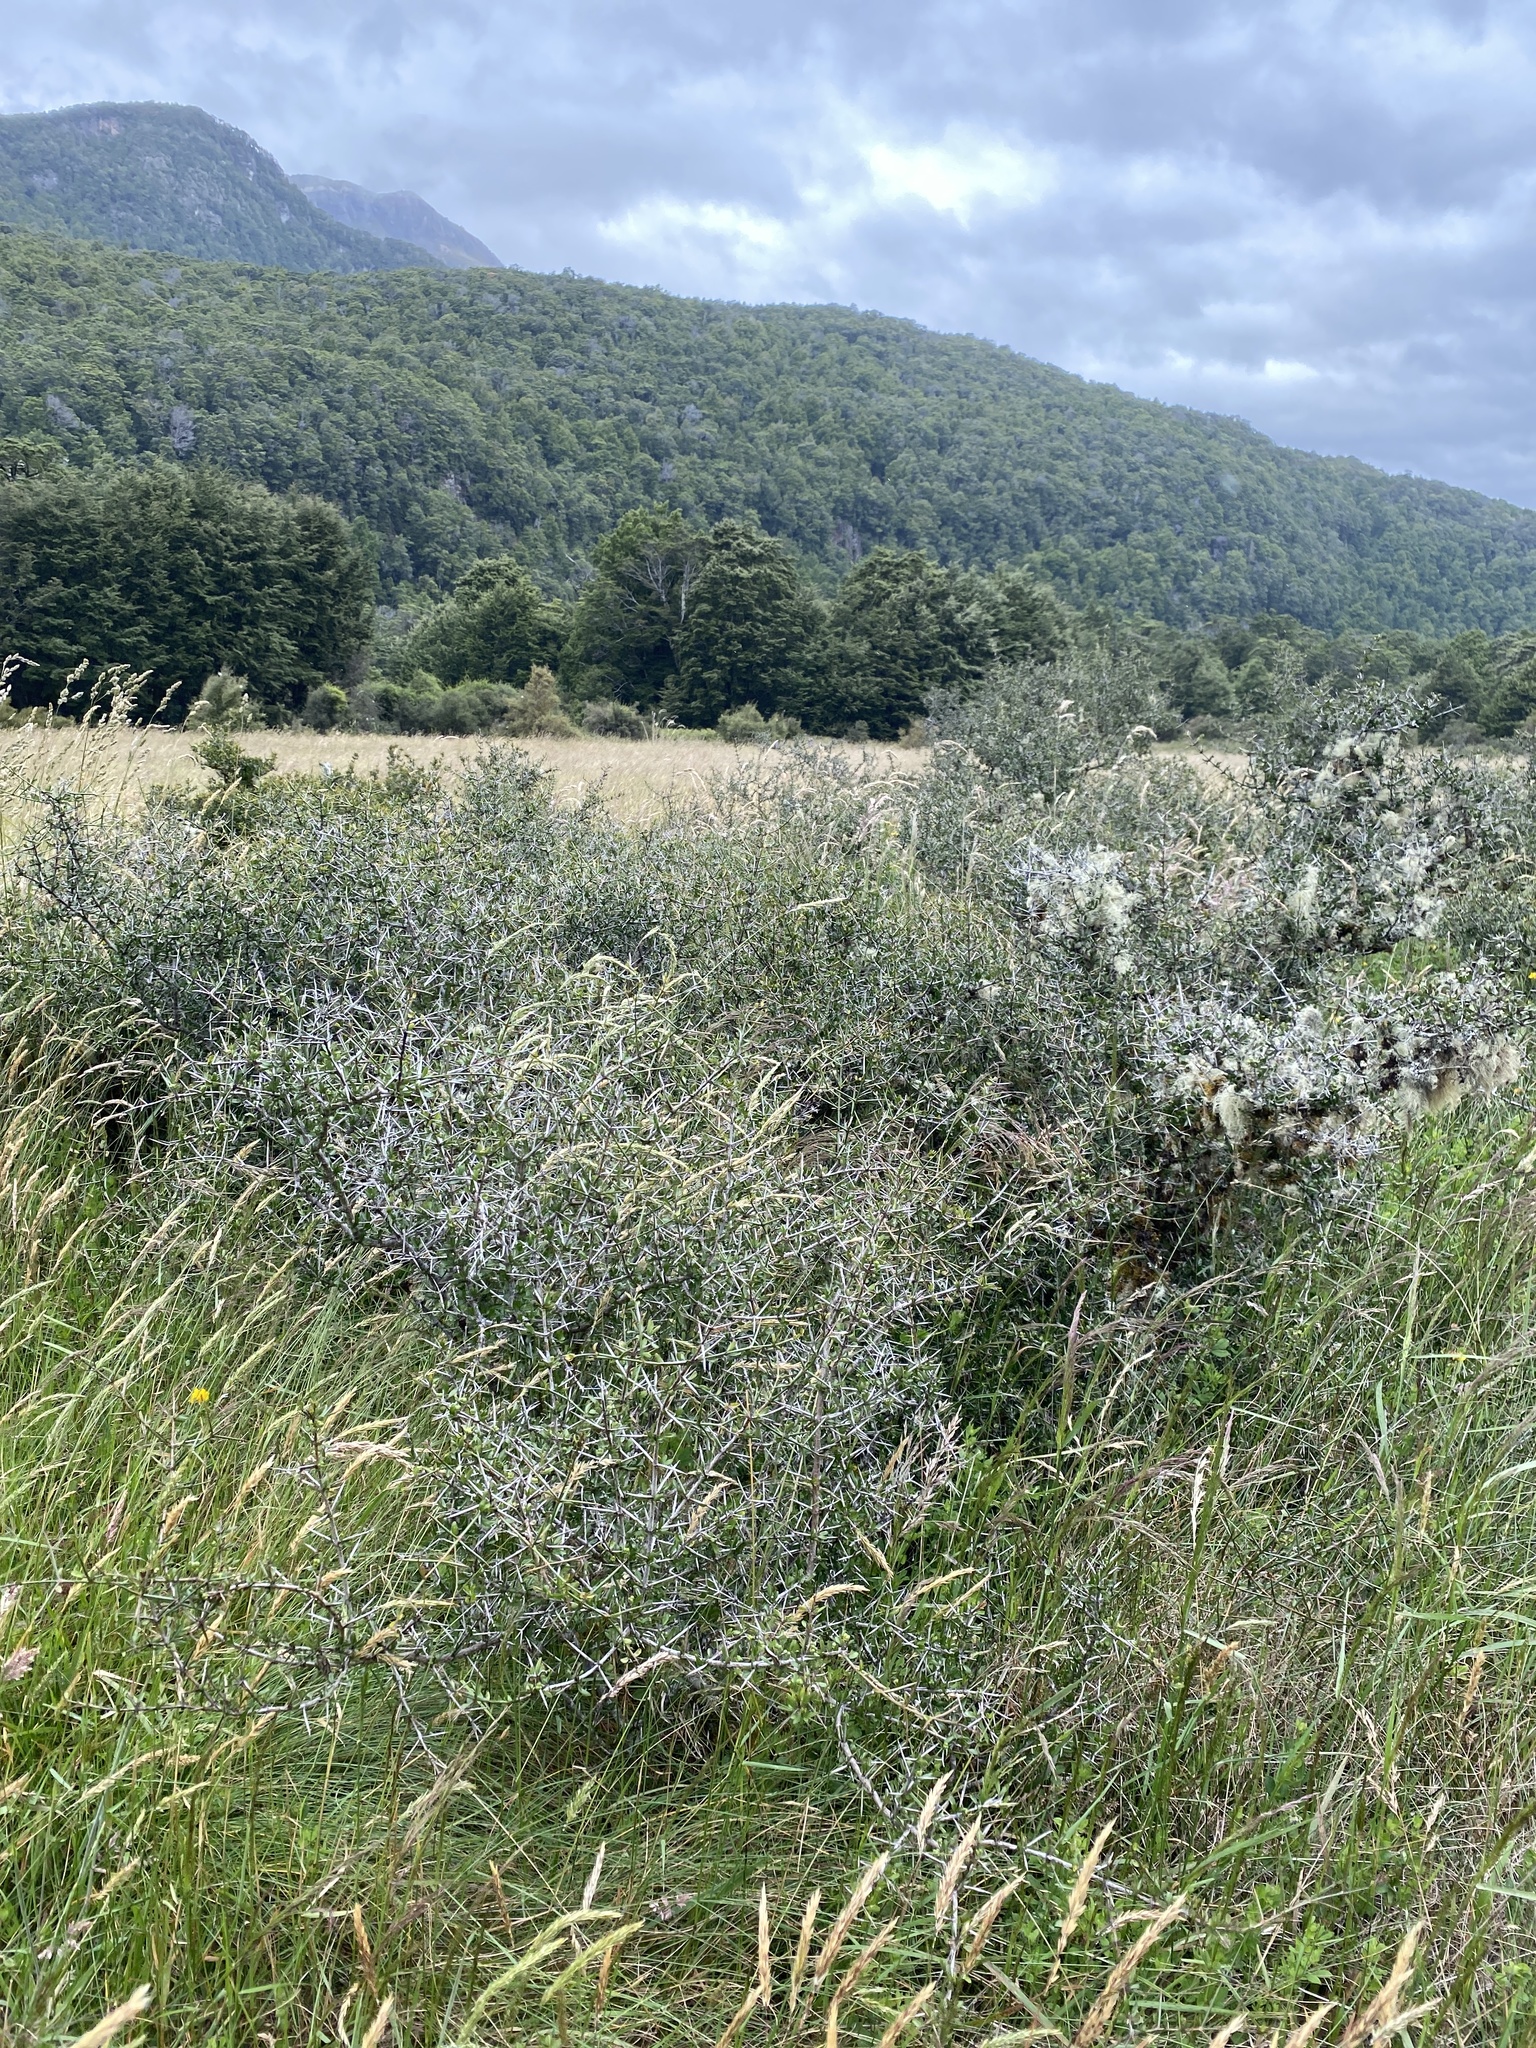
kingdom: Plantae
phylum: Tracheophyta
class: Magnoliopsida
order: Rosales
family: Rhamnaceae
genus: Discaria
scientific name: Discaria toumatou
